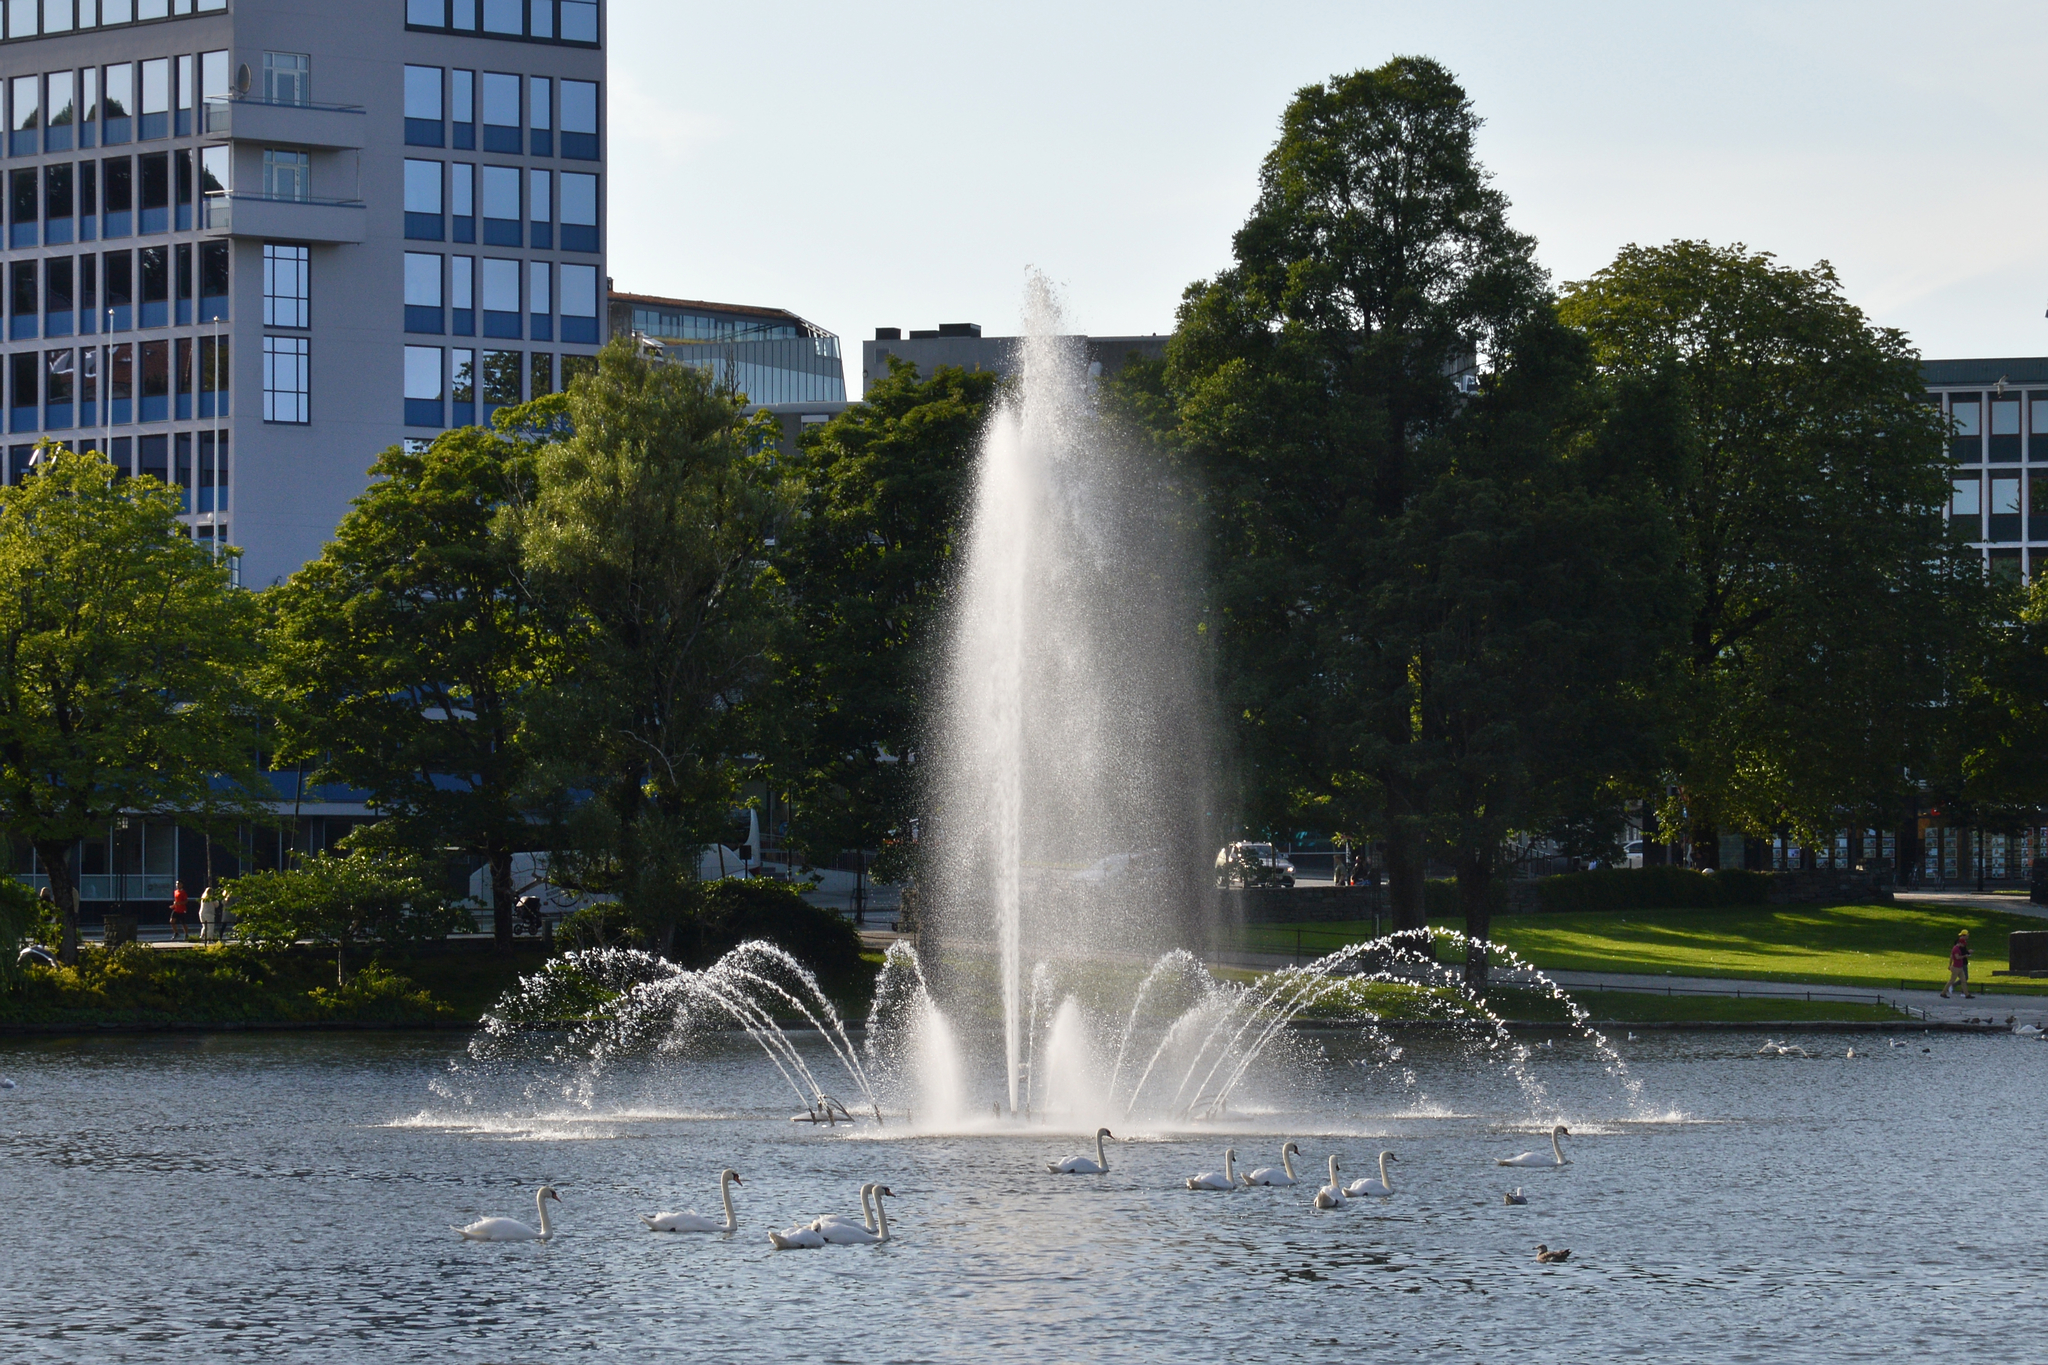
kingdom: Animalia
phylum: Chordata
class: Aves
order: Anseriformes
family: Anatidae
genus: Cygnus
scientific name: Cygnus olor
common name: Mute swan
